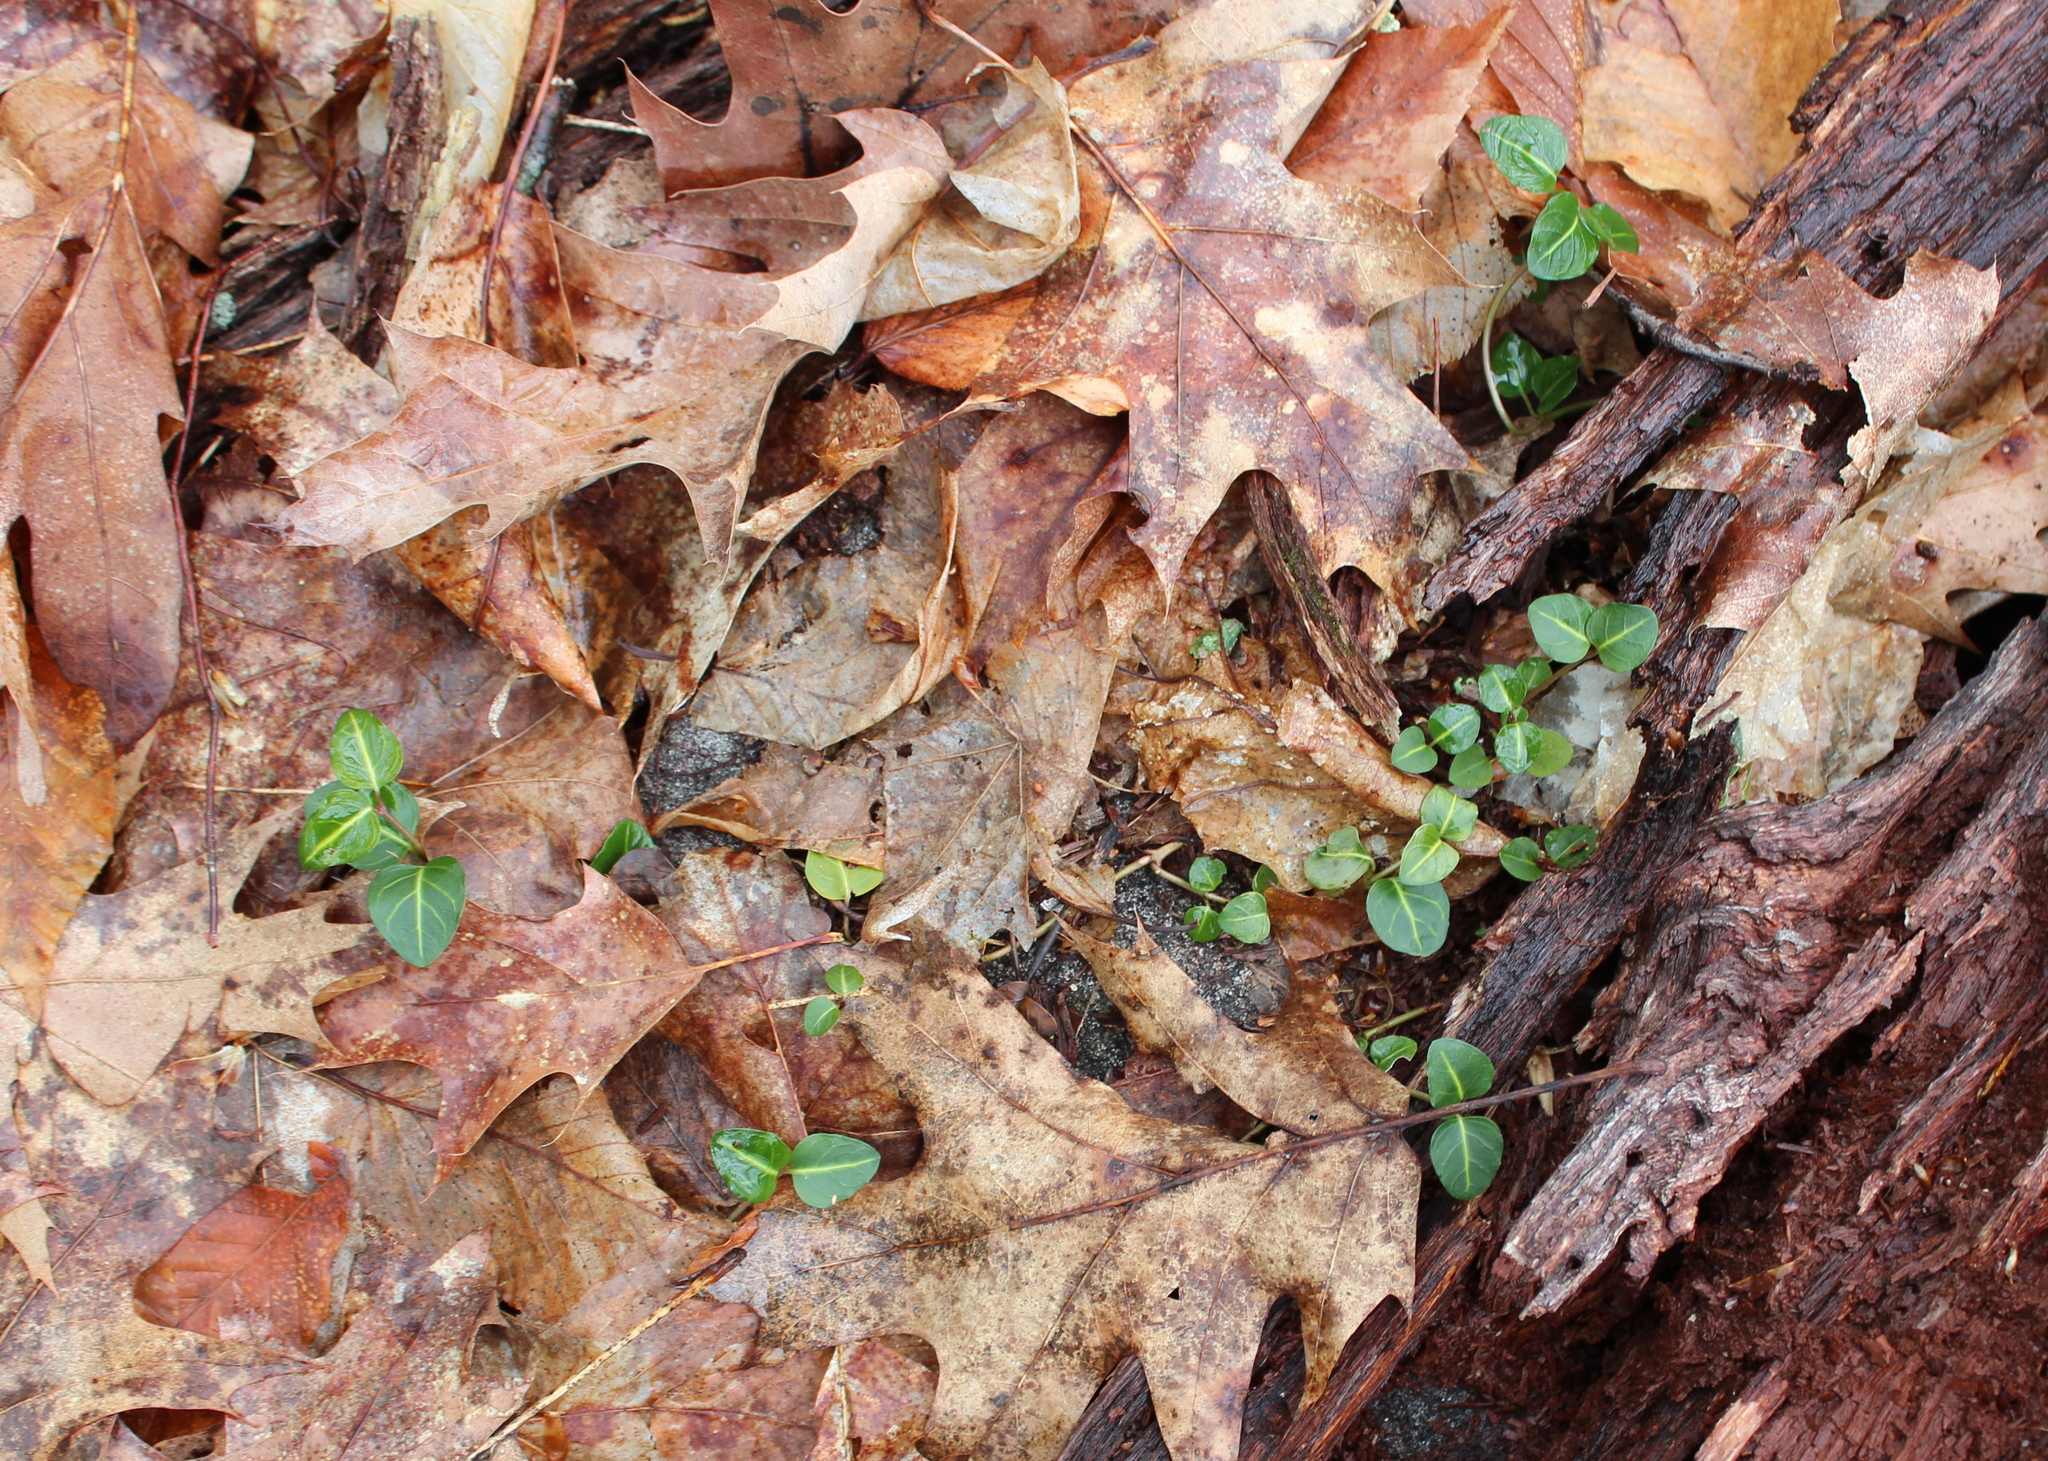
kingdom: Plantae
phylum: Tracheophyta
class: Magnoliopsida
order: Gentianales
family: Rubiaceae
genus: Mitchella
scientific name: Mitchella repens
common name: Partridge-berry
